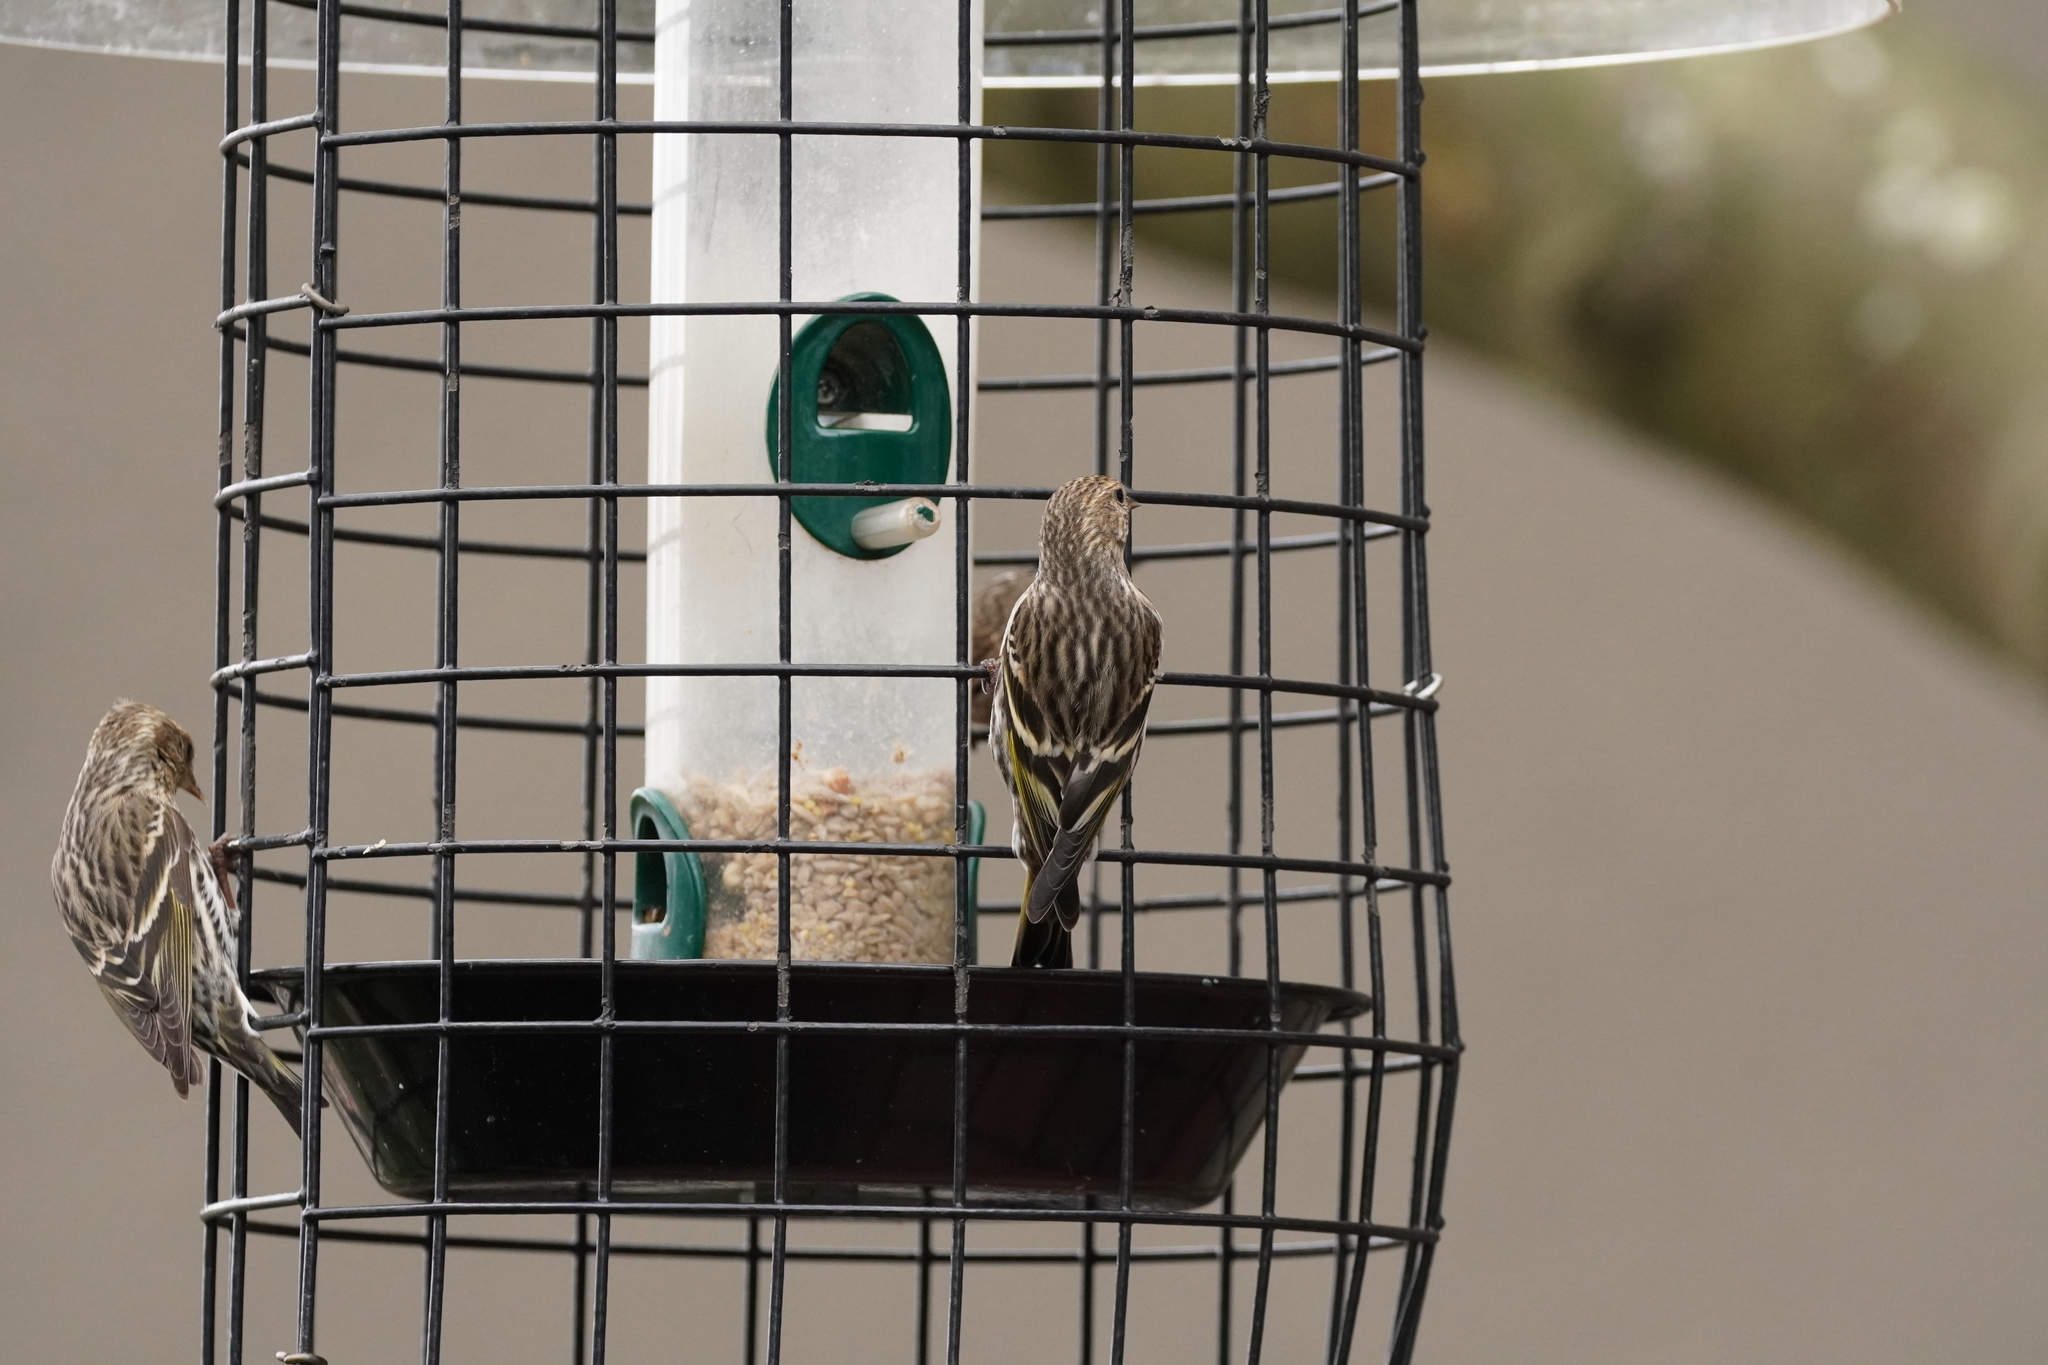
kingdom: Animalia
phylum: Chordata
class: Aves
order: Passeriformes
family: Fringillidae
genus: Spinus
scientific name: Spinus pinus
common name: Pine siskin
